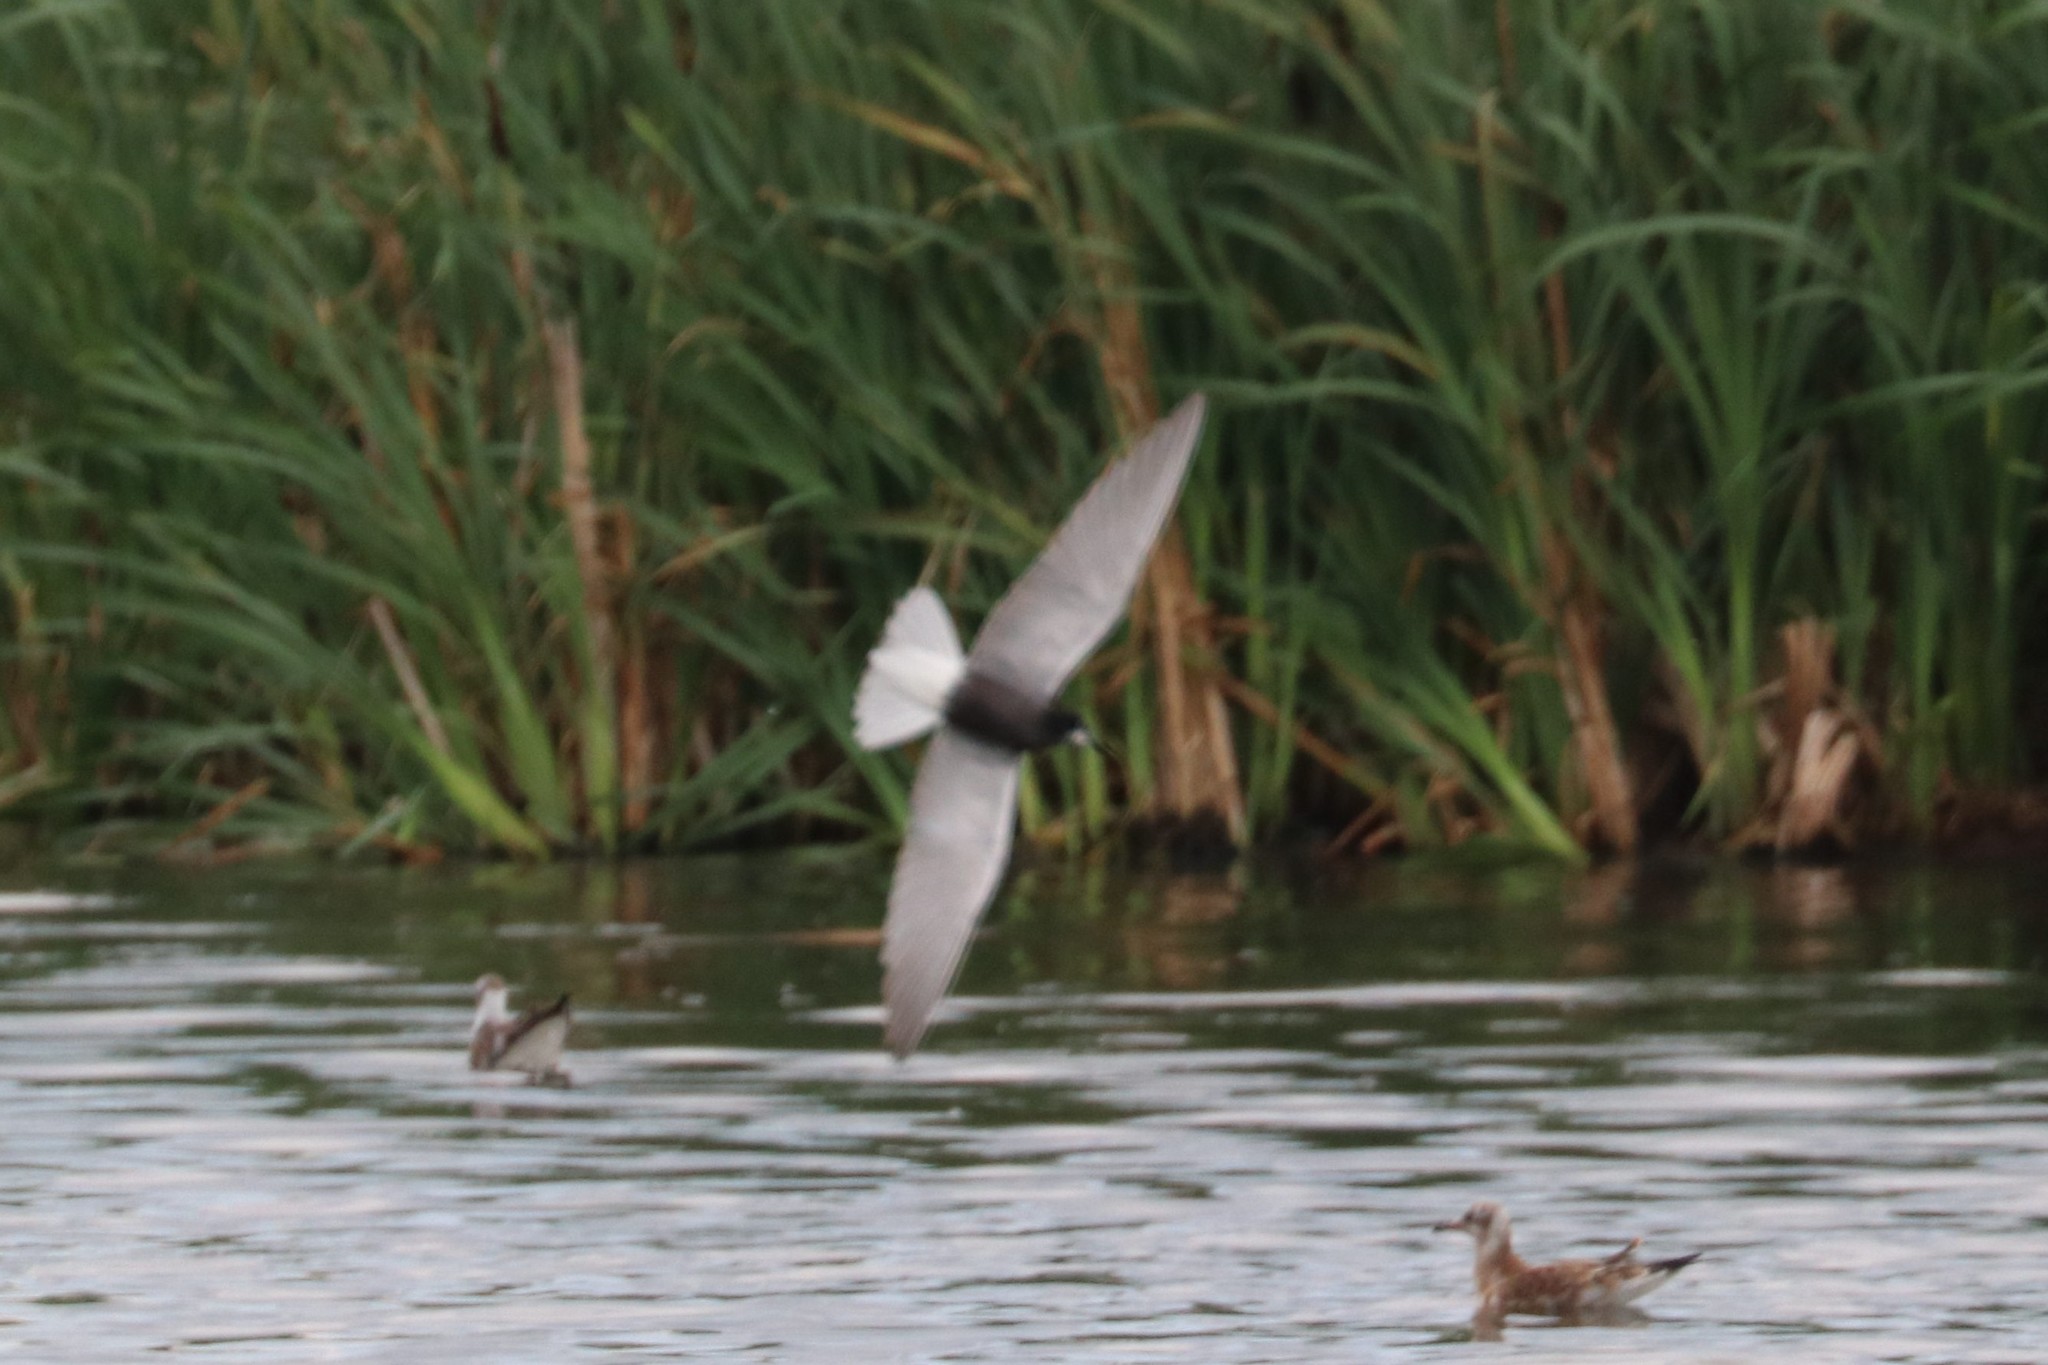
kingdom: Animalia
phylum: Chordata
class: Aves
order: Charadriiformes
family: Laridae
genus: Chlidonias
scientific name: Chlidonias niger
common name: Black tern
